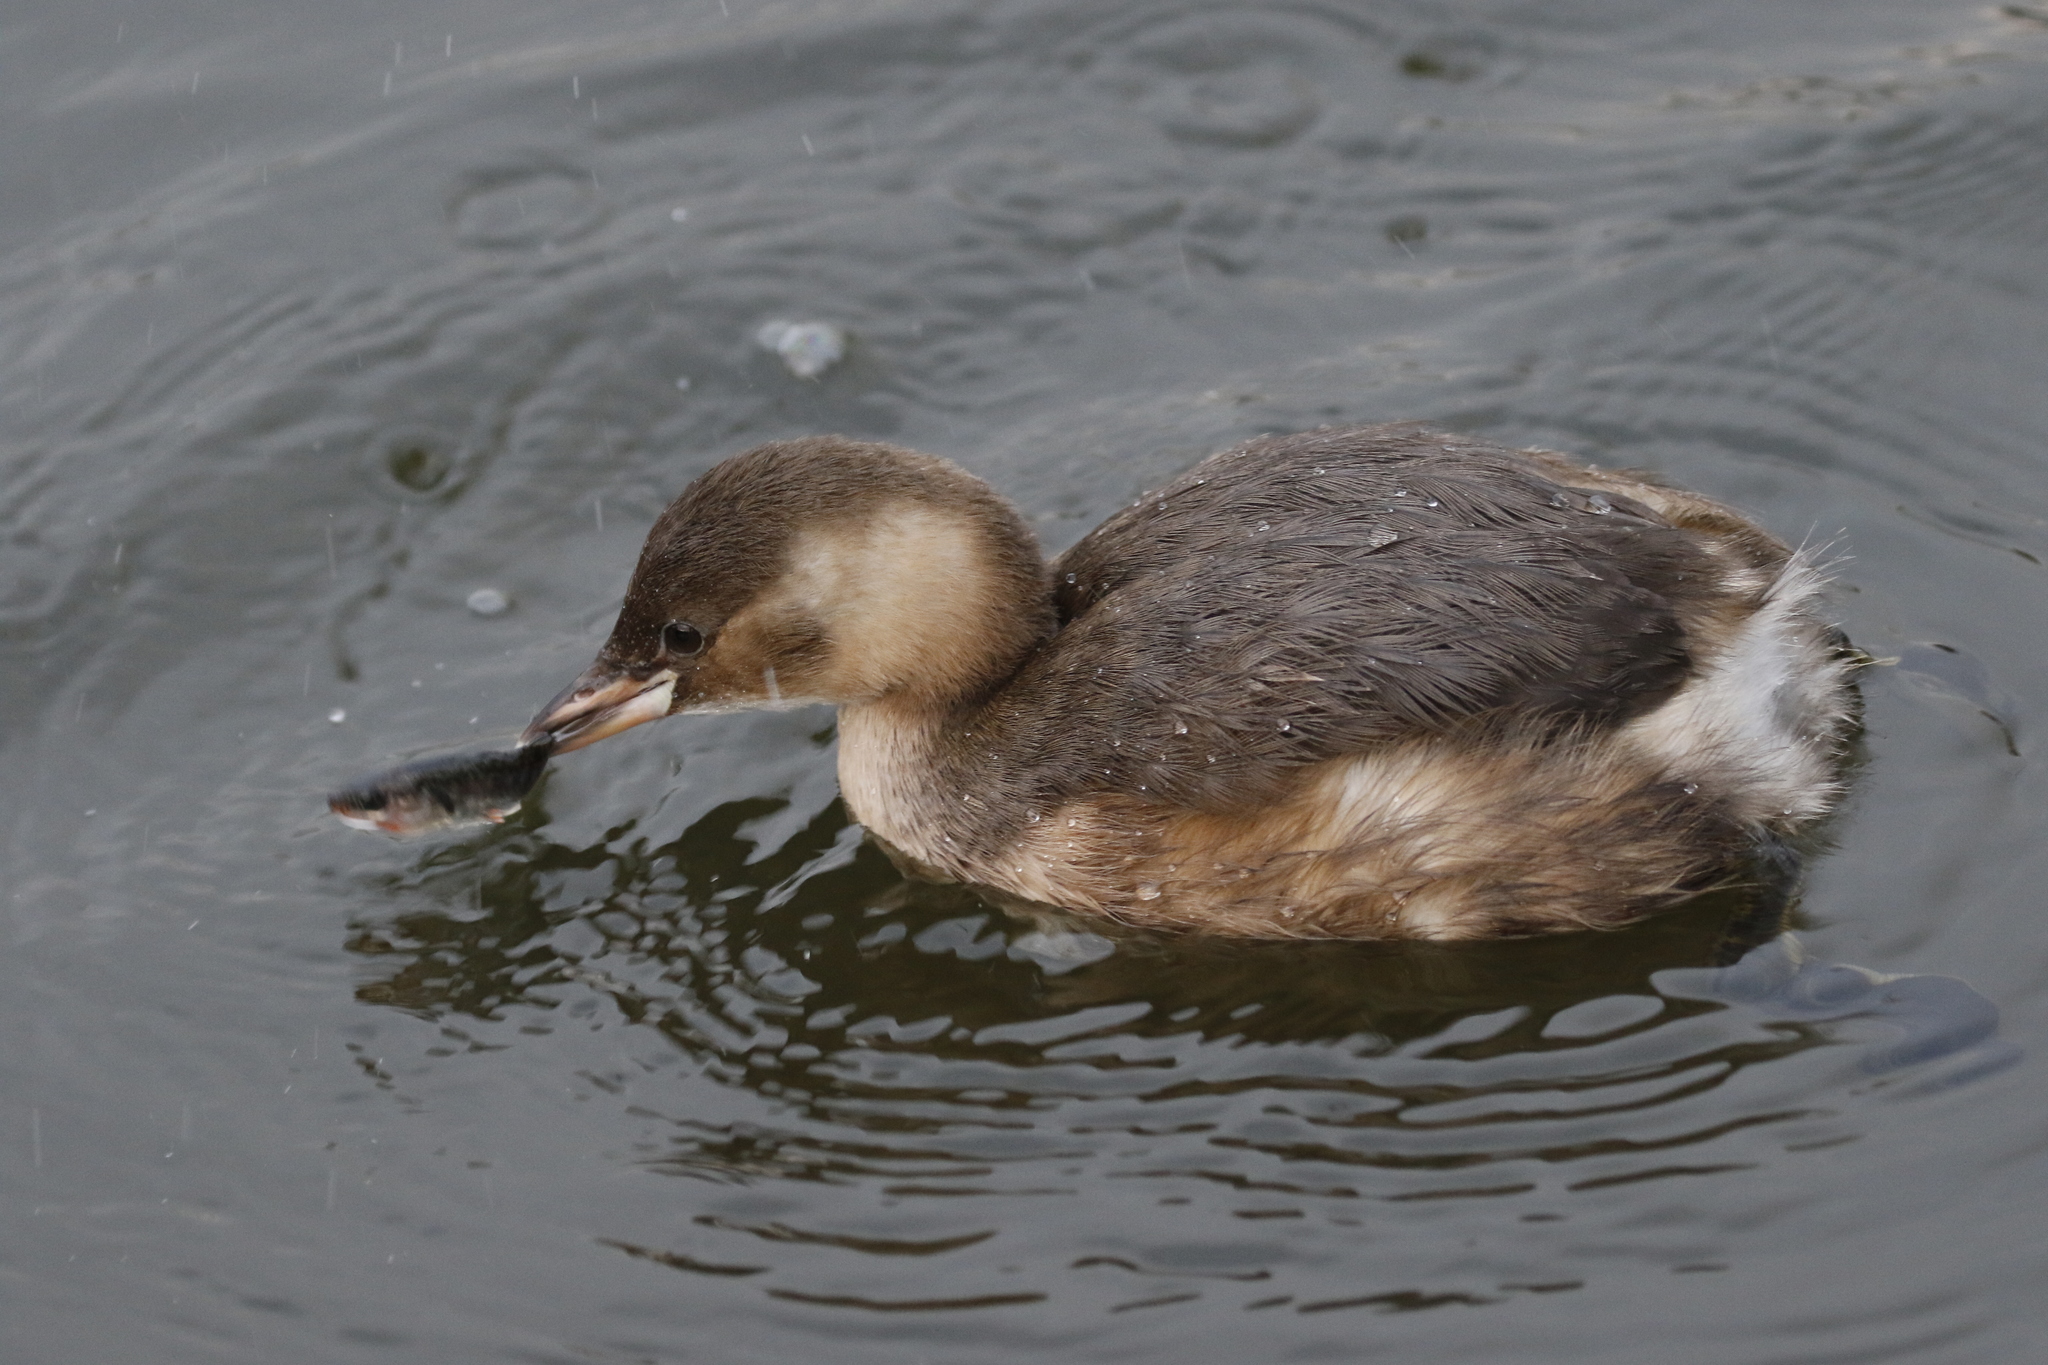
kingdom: Animalia
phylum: Chordata
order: Gasterosteiformes
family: Gasterosteidae
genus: Gasterosteus
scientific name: Gasterosteus aculeatus
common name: Three-spined stickleback
